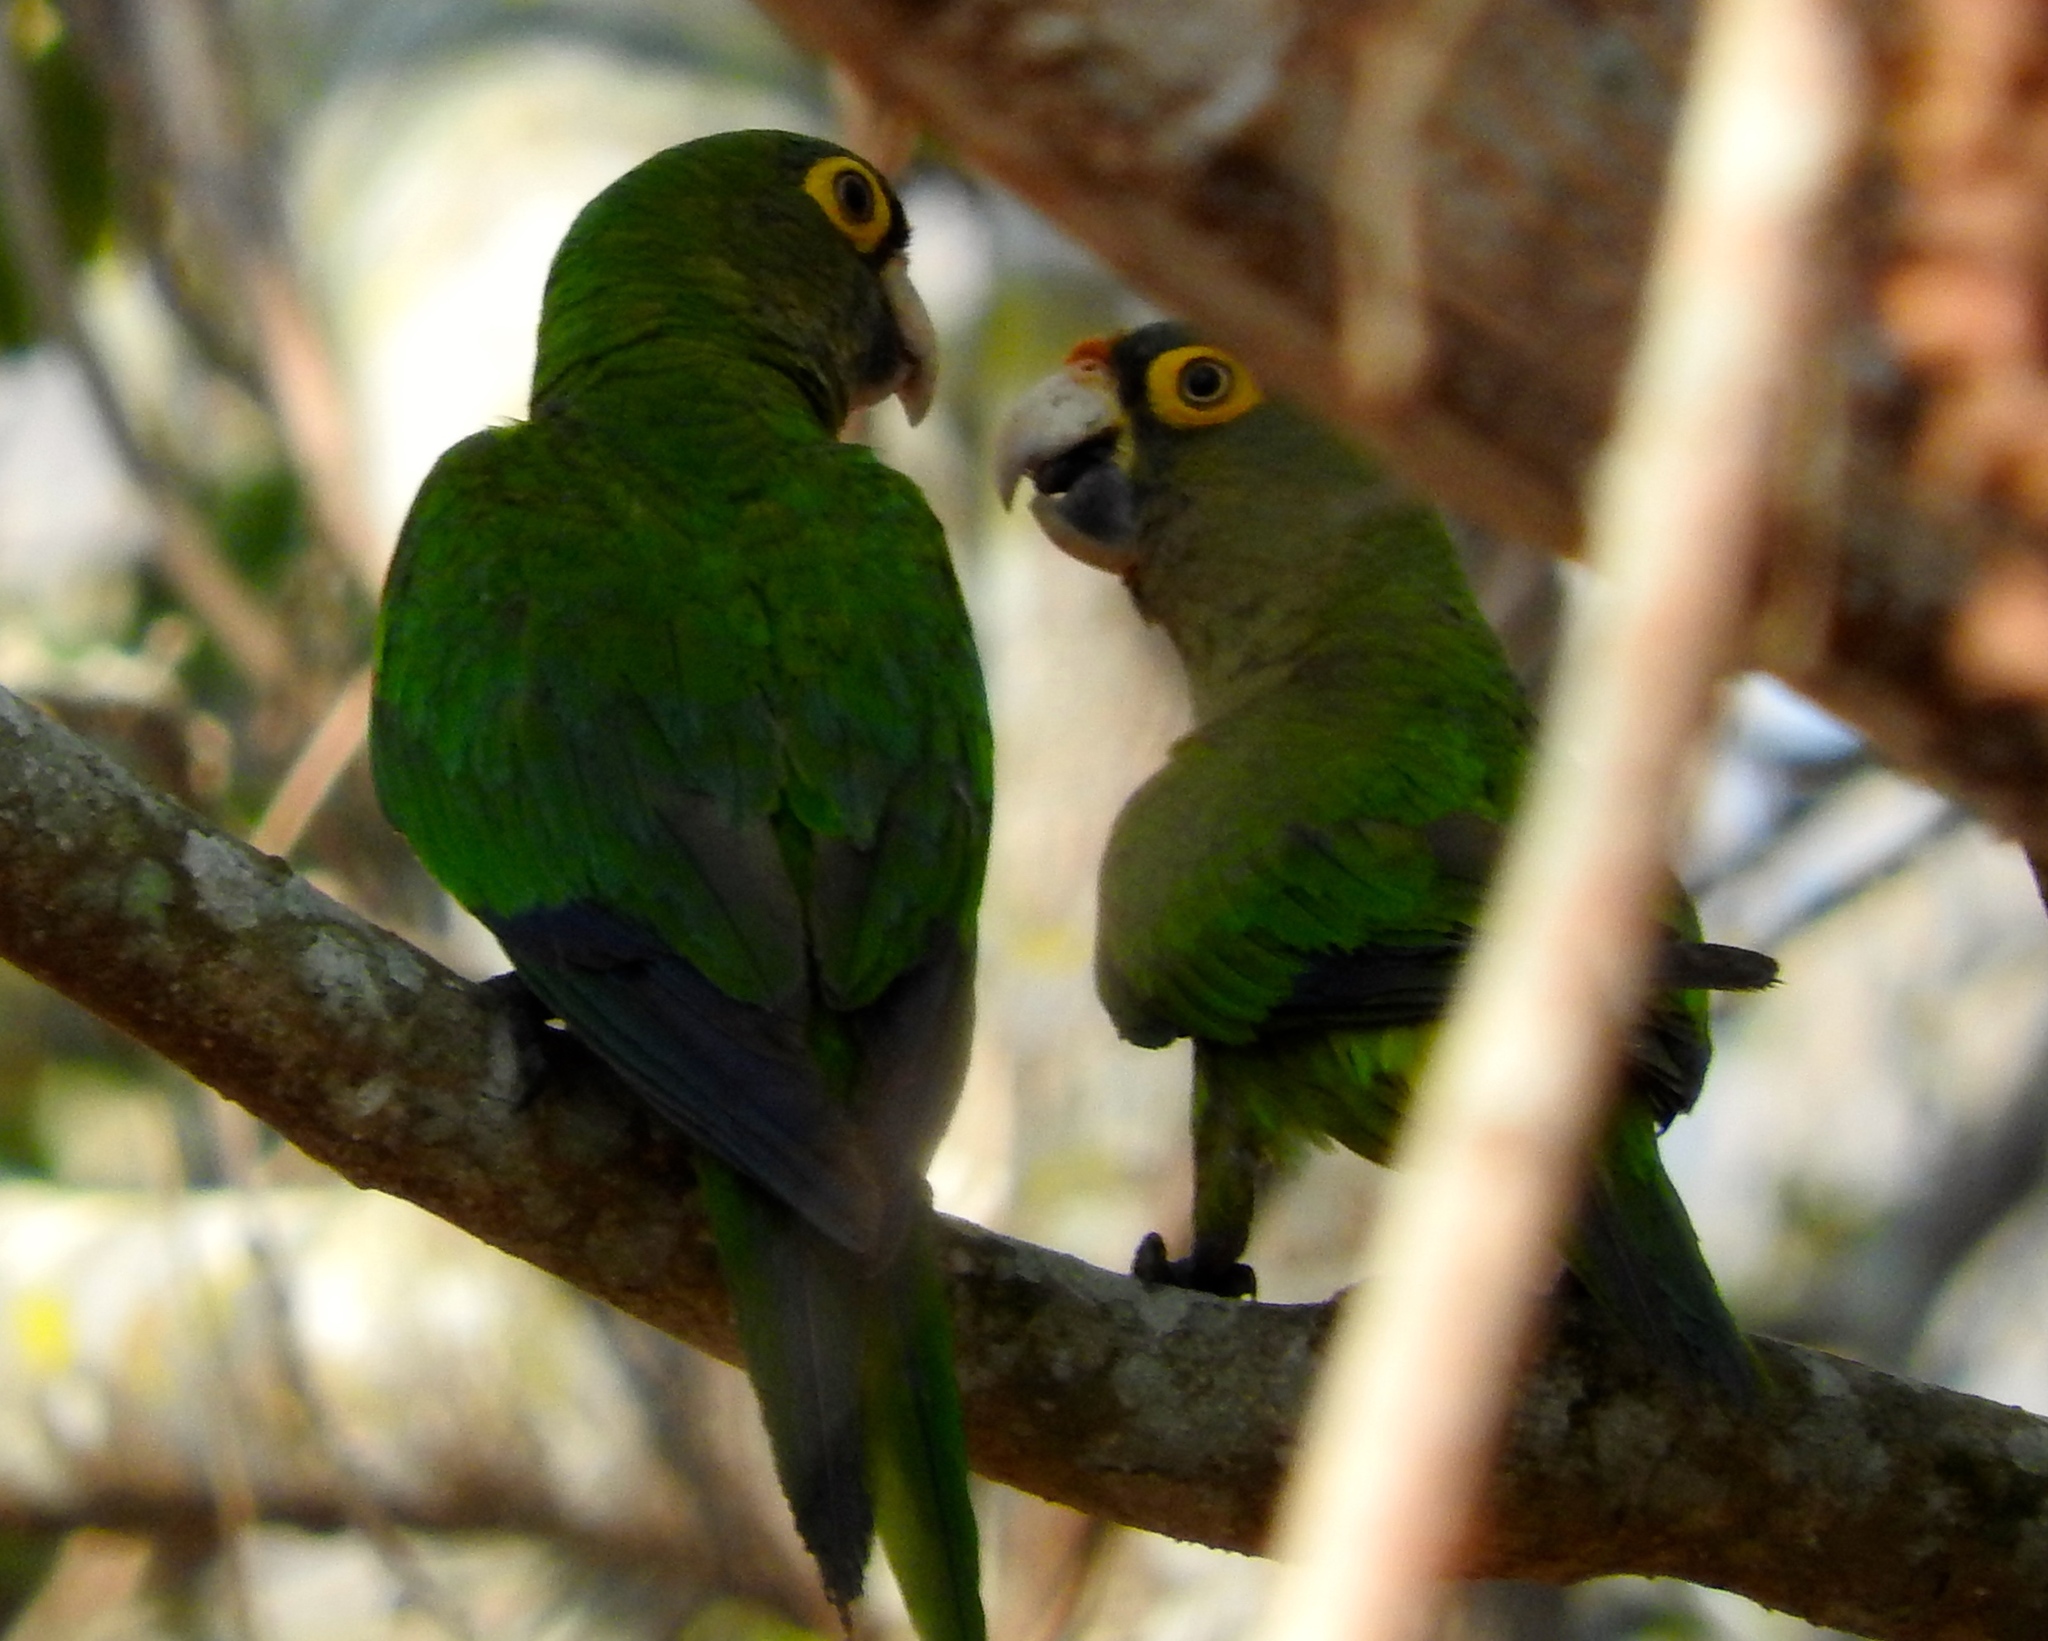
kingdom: Animalia
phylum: Chordata
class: Aves
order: Psittaciformes
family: Psittacidae
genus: Aratinga
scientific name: Aratinga canicularis
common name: Orange-fronted parakeet
